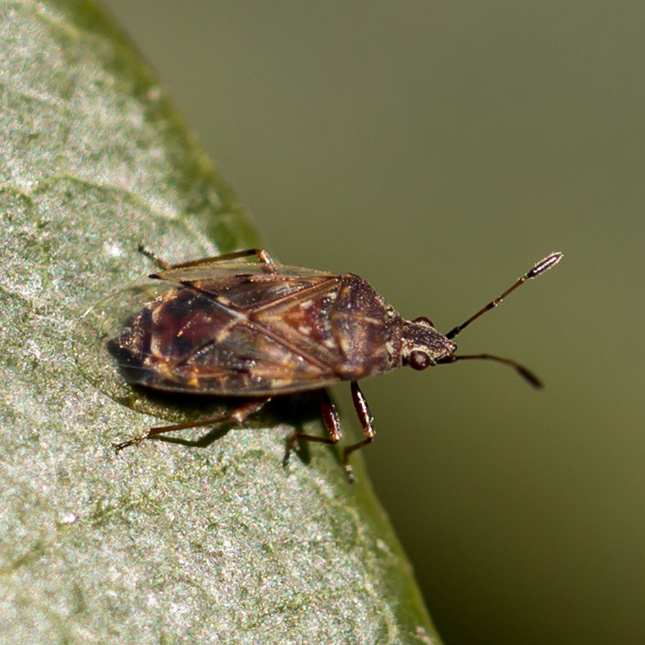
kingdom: Animalia
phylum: Arthropoda
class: Insecta
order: Hemiptera
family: Lygaeidae
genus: Kleidocerys
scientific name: Kleidocerys resedae
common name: Birch catkin bug
